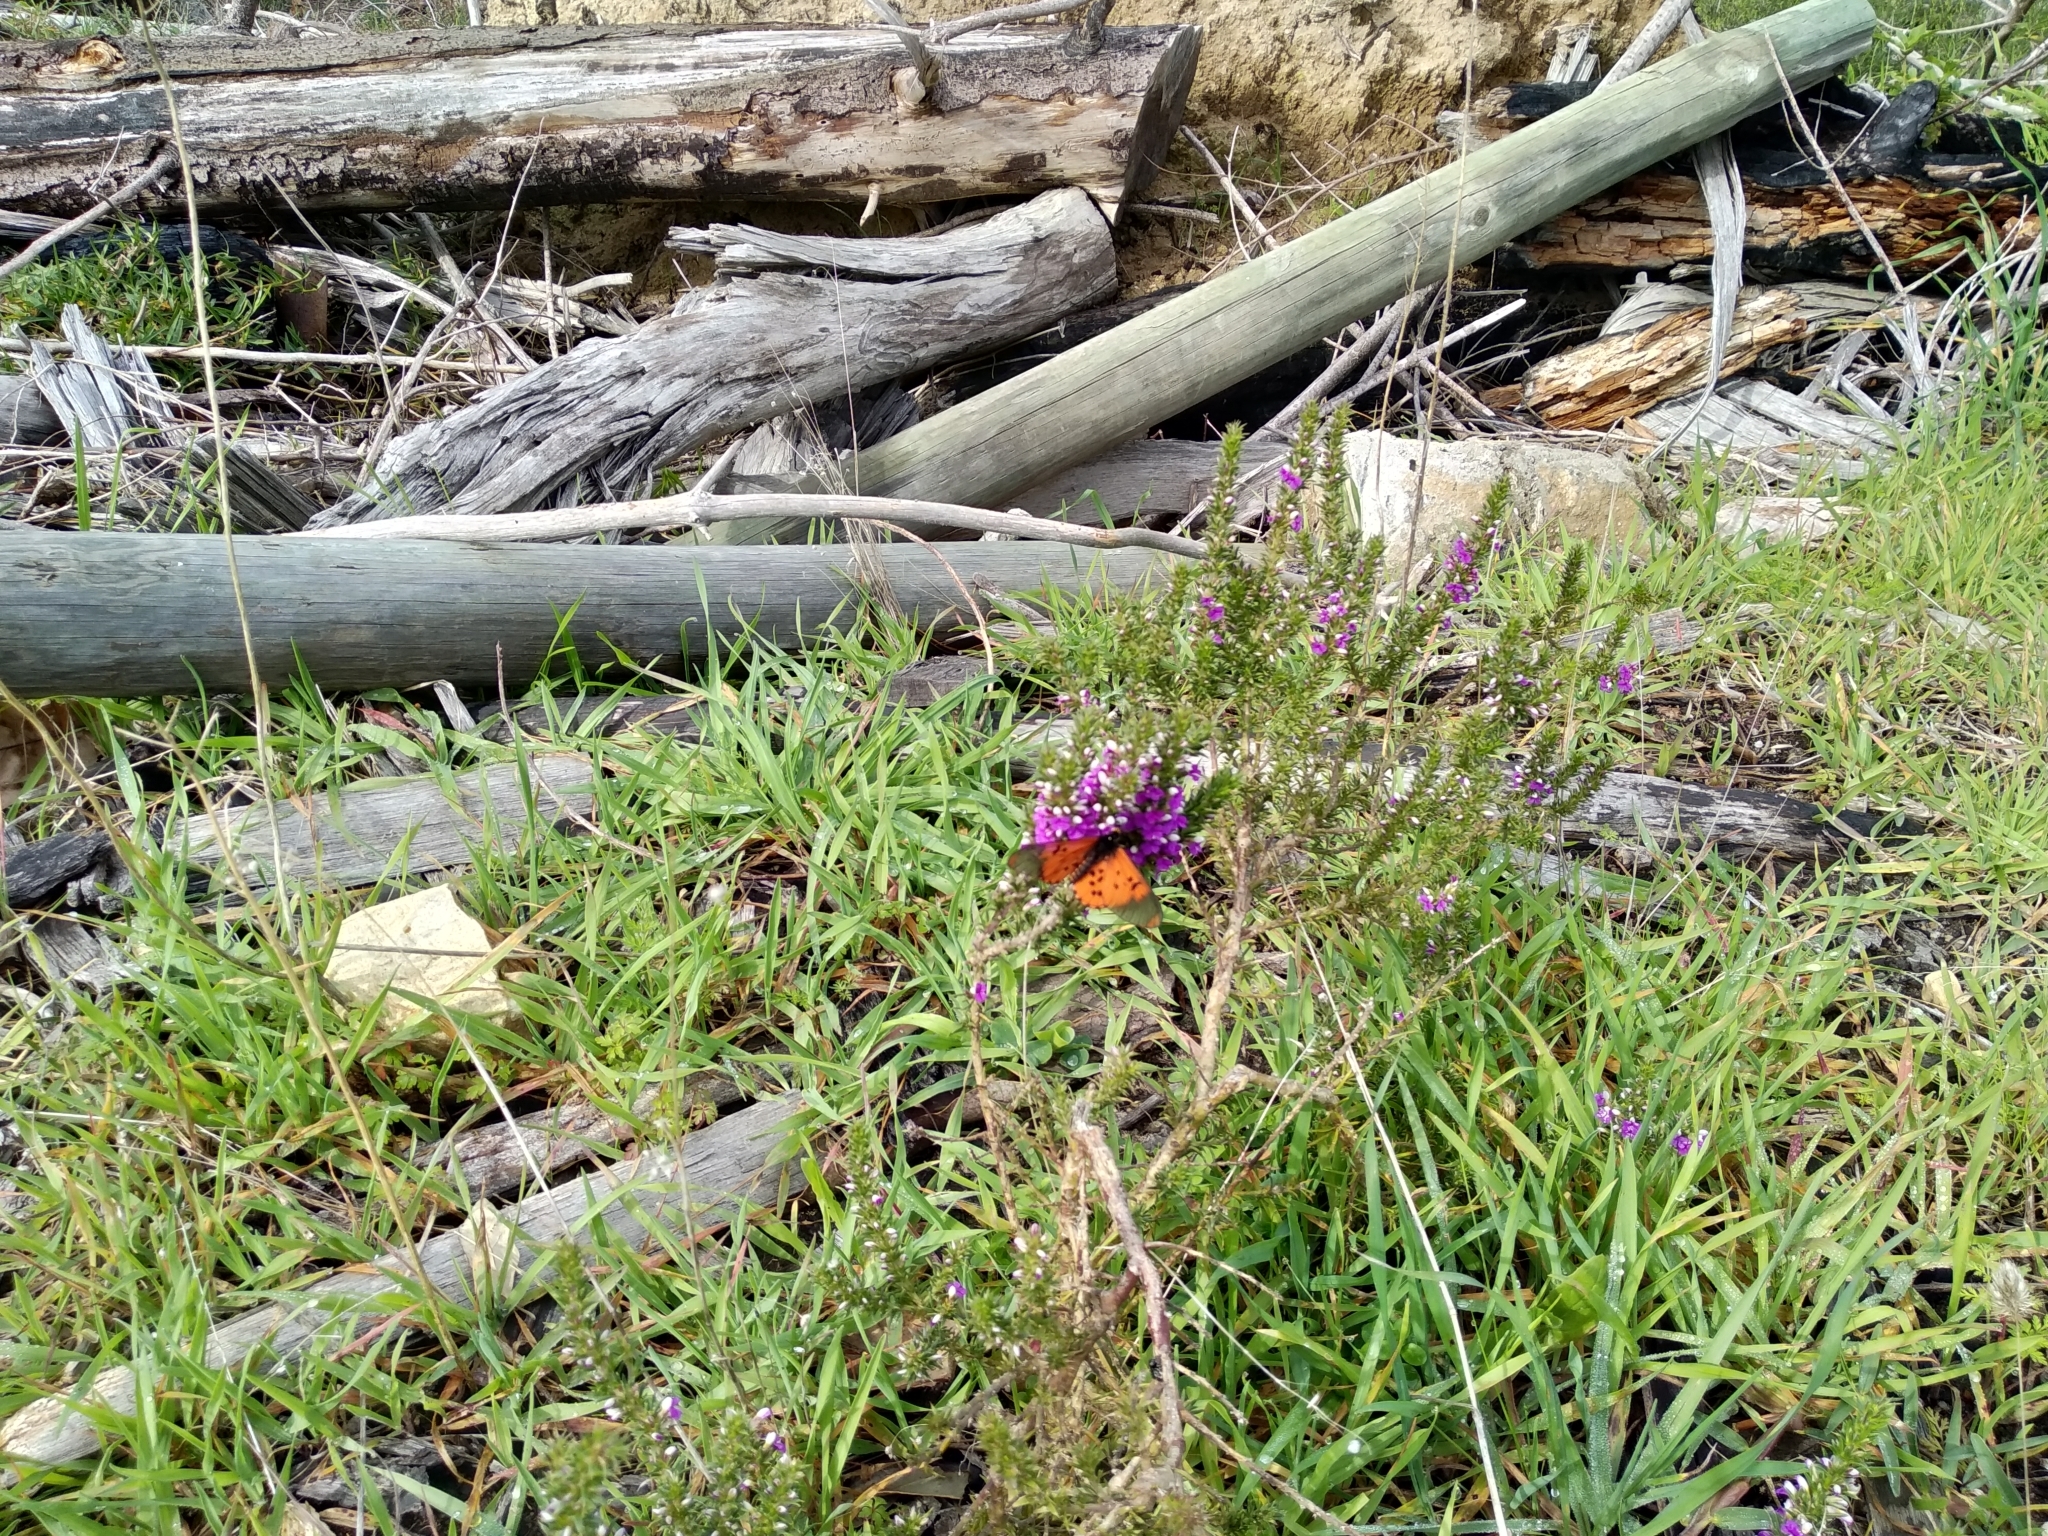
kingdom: Animalia
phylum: Arthropoda
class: Insecta
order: Lepidoptera
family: Nymphalidae
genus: Acraea
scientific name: Acraea horta
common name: Garden acraea
